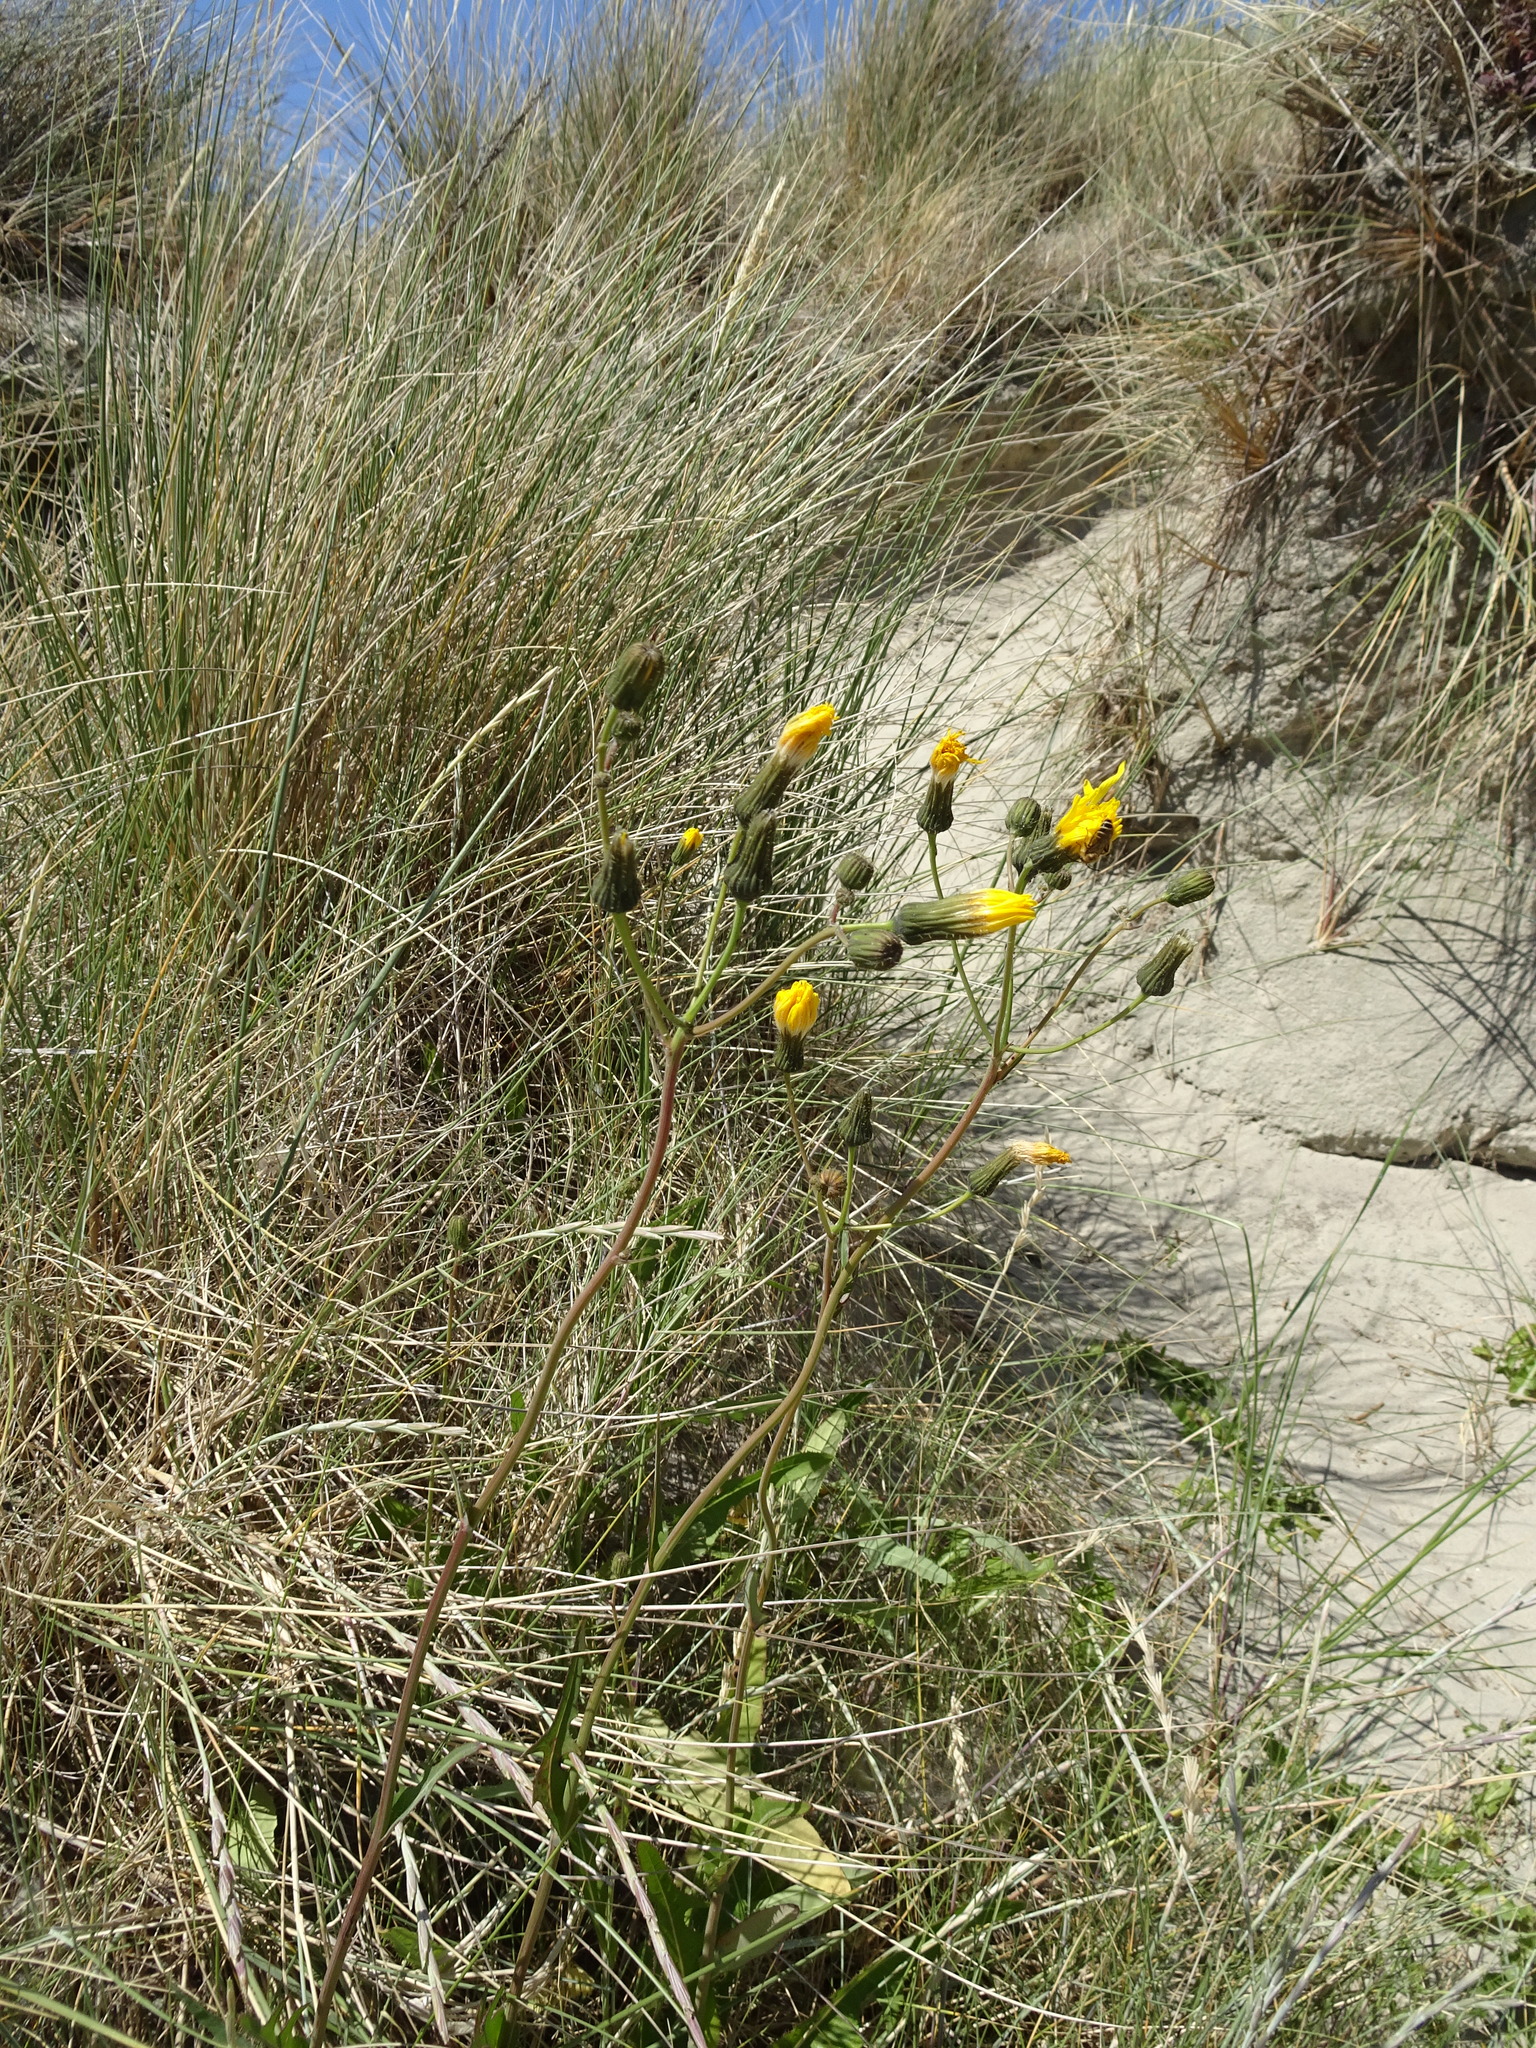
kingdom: Plantae
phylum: Tracheophyta
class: Magnoliopsida
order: Asterales
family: Asteraceae
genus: Sonchus
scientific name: Sonchus arvensis
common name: Perennial sow-thistle
